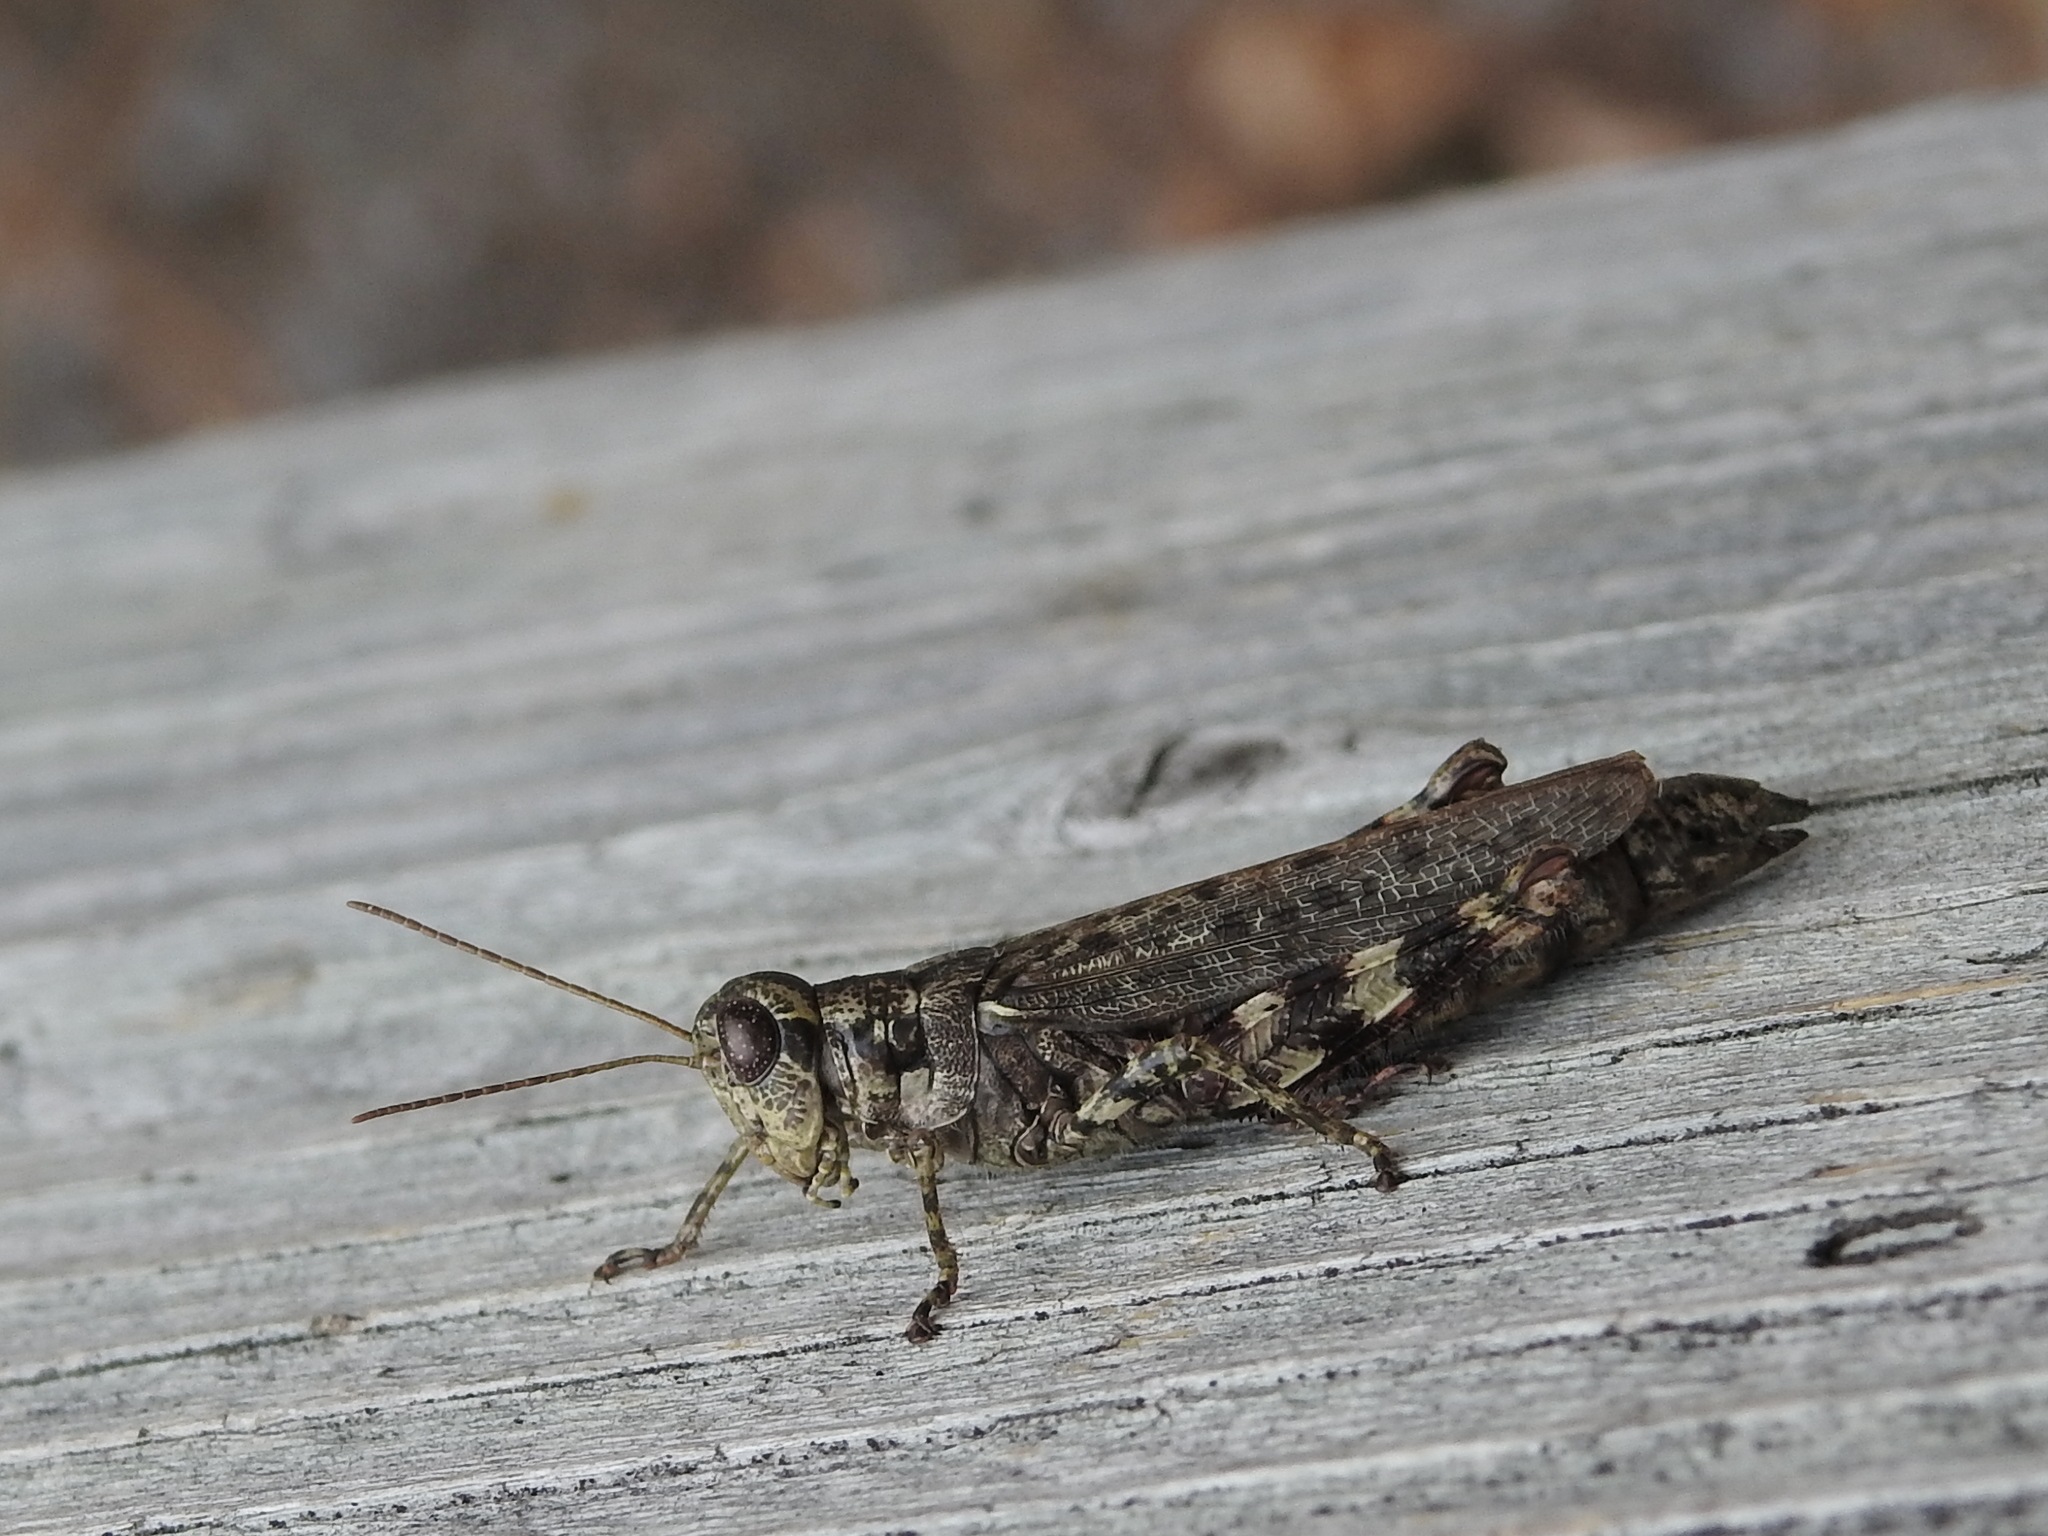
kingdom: Animalia
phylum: Arthropoda
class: Insecta
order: Orthoptera
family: Acrididae
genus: Melanoplus
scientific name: Melanoplus punctulatus
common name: Pine-tree spur-throat grasshopper
